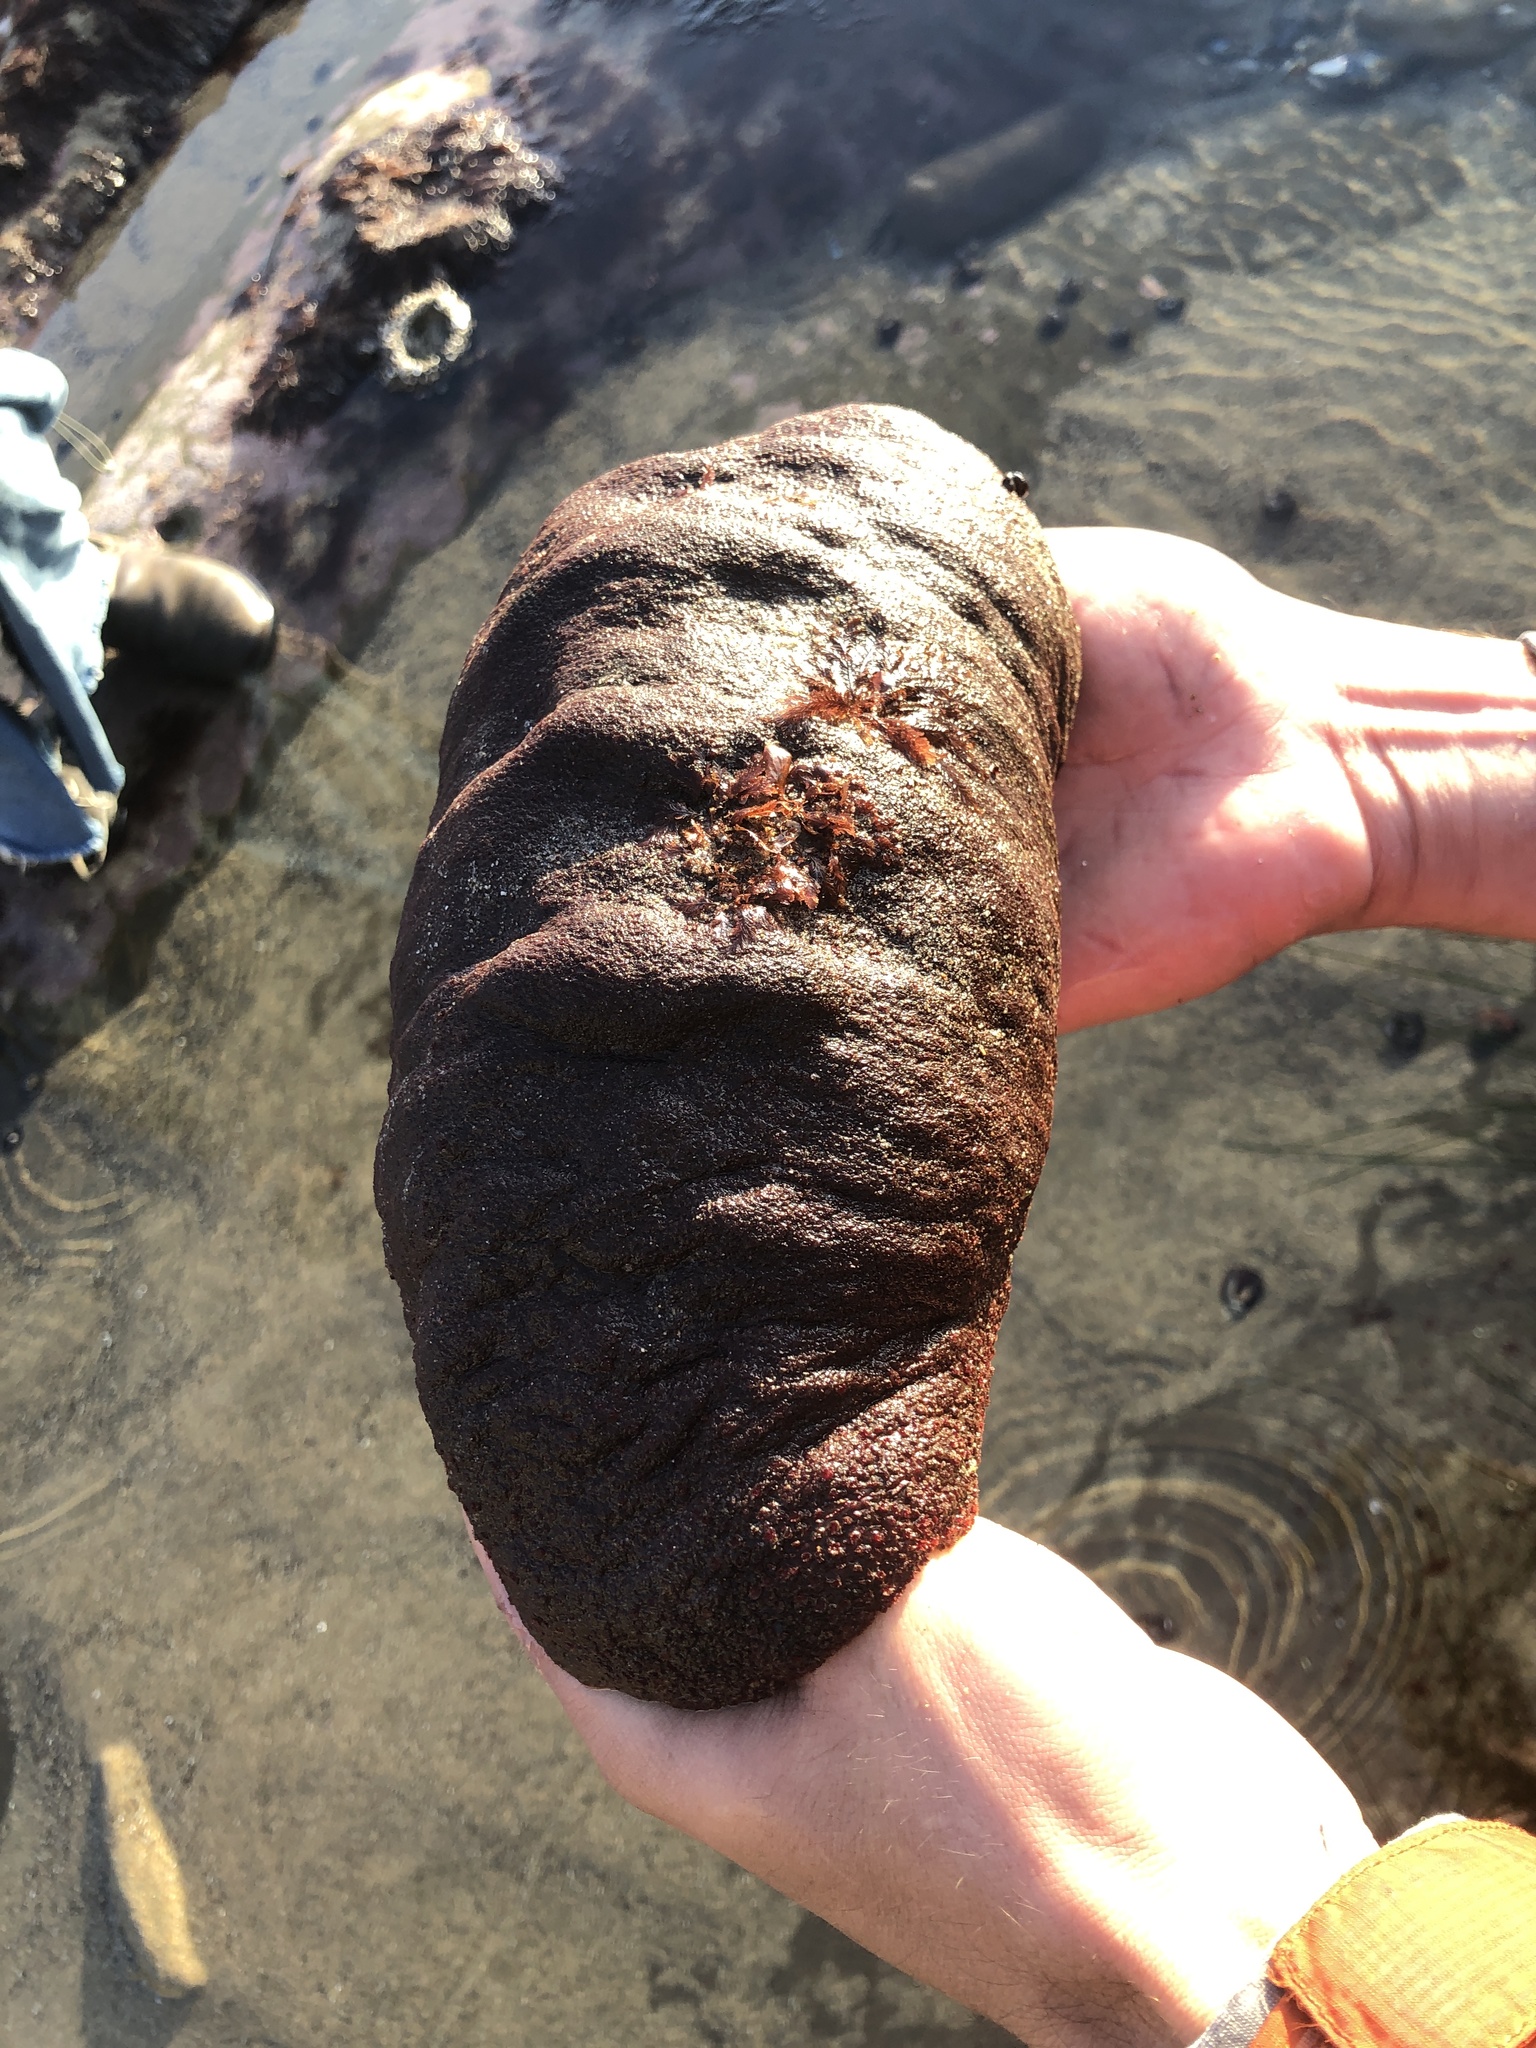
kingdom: Animalia
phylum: Mollusca
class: Polyplacophora
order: Chitonida
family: Acanthochitonidae
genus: Cryptochiton
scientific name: Cryptochiton stelleri
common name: Giant pacific chiton
